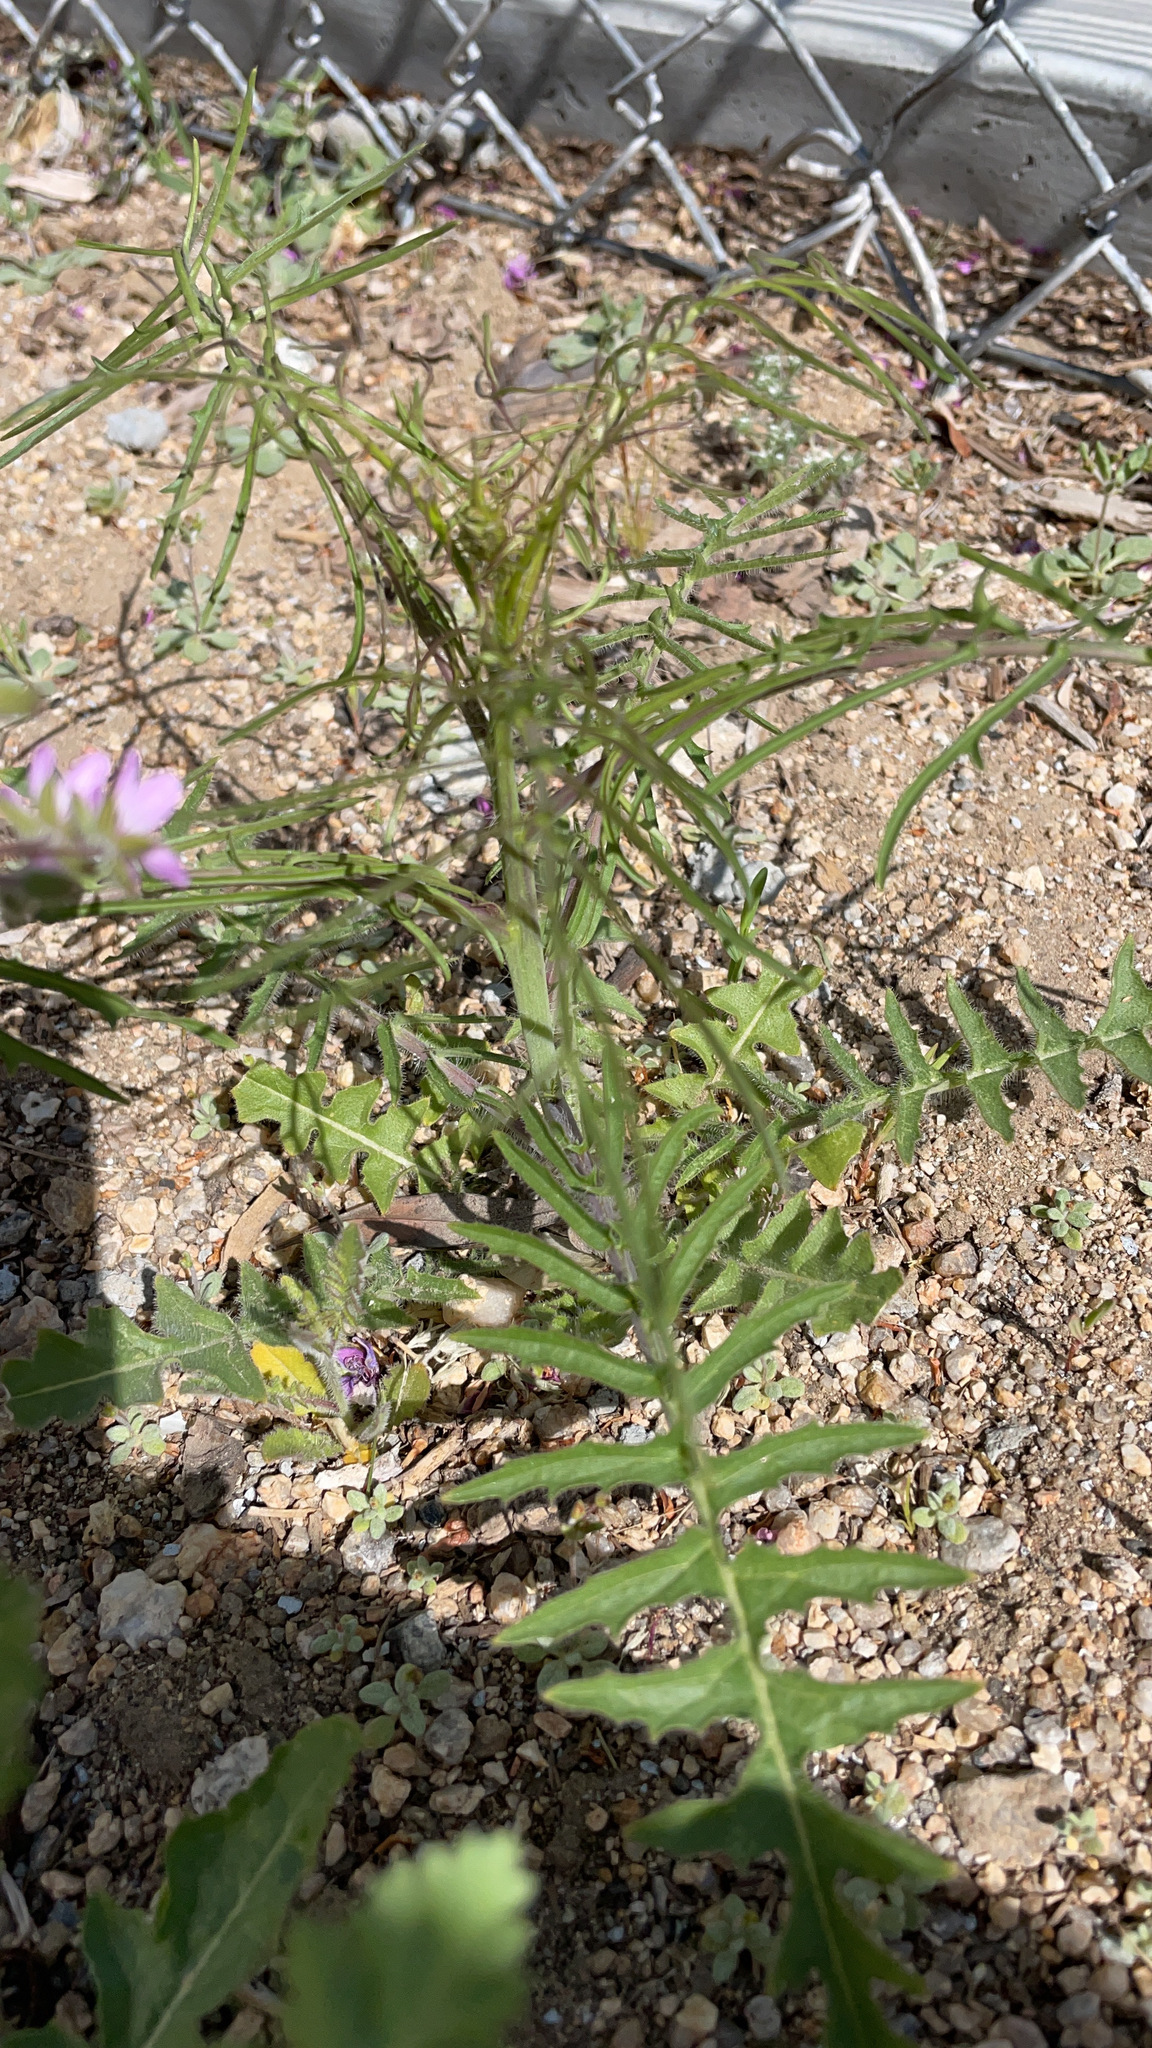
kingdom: Plantae
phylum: Tracheophyta
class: Magnoliopsida
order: Brassicales
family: Brassicaceae
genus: Sisymbrium
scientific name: Sisymbrium altissimum
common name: Tall rocket
